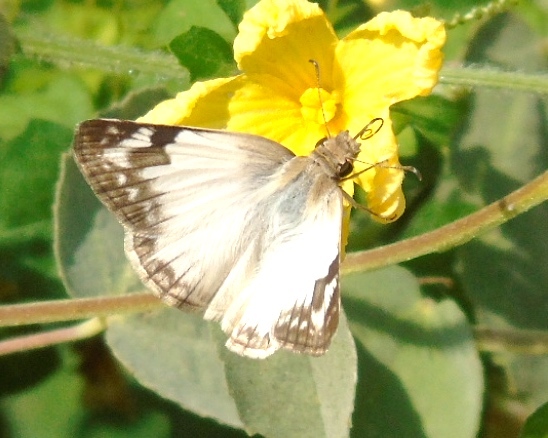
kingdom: Animalia
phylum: Arthropoda
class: Insecta
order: Lepidoptera
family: Hesperiidae
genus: Heliopetes
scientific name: Heliopetes laviana
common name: Laviana white-skipper
